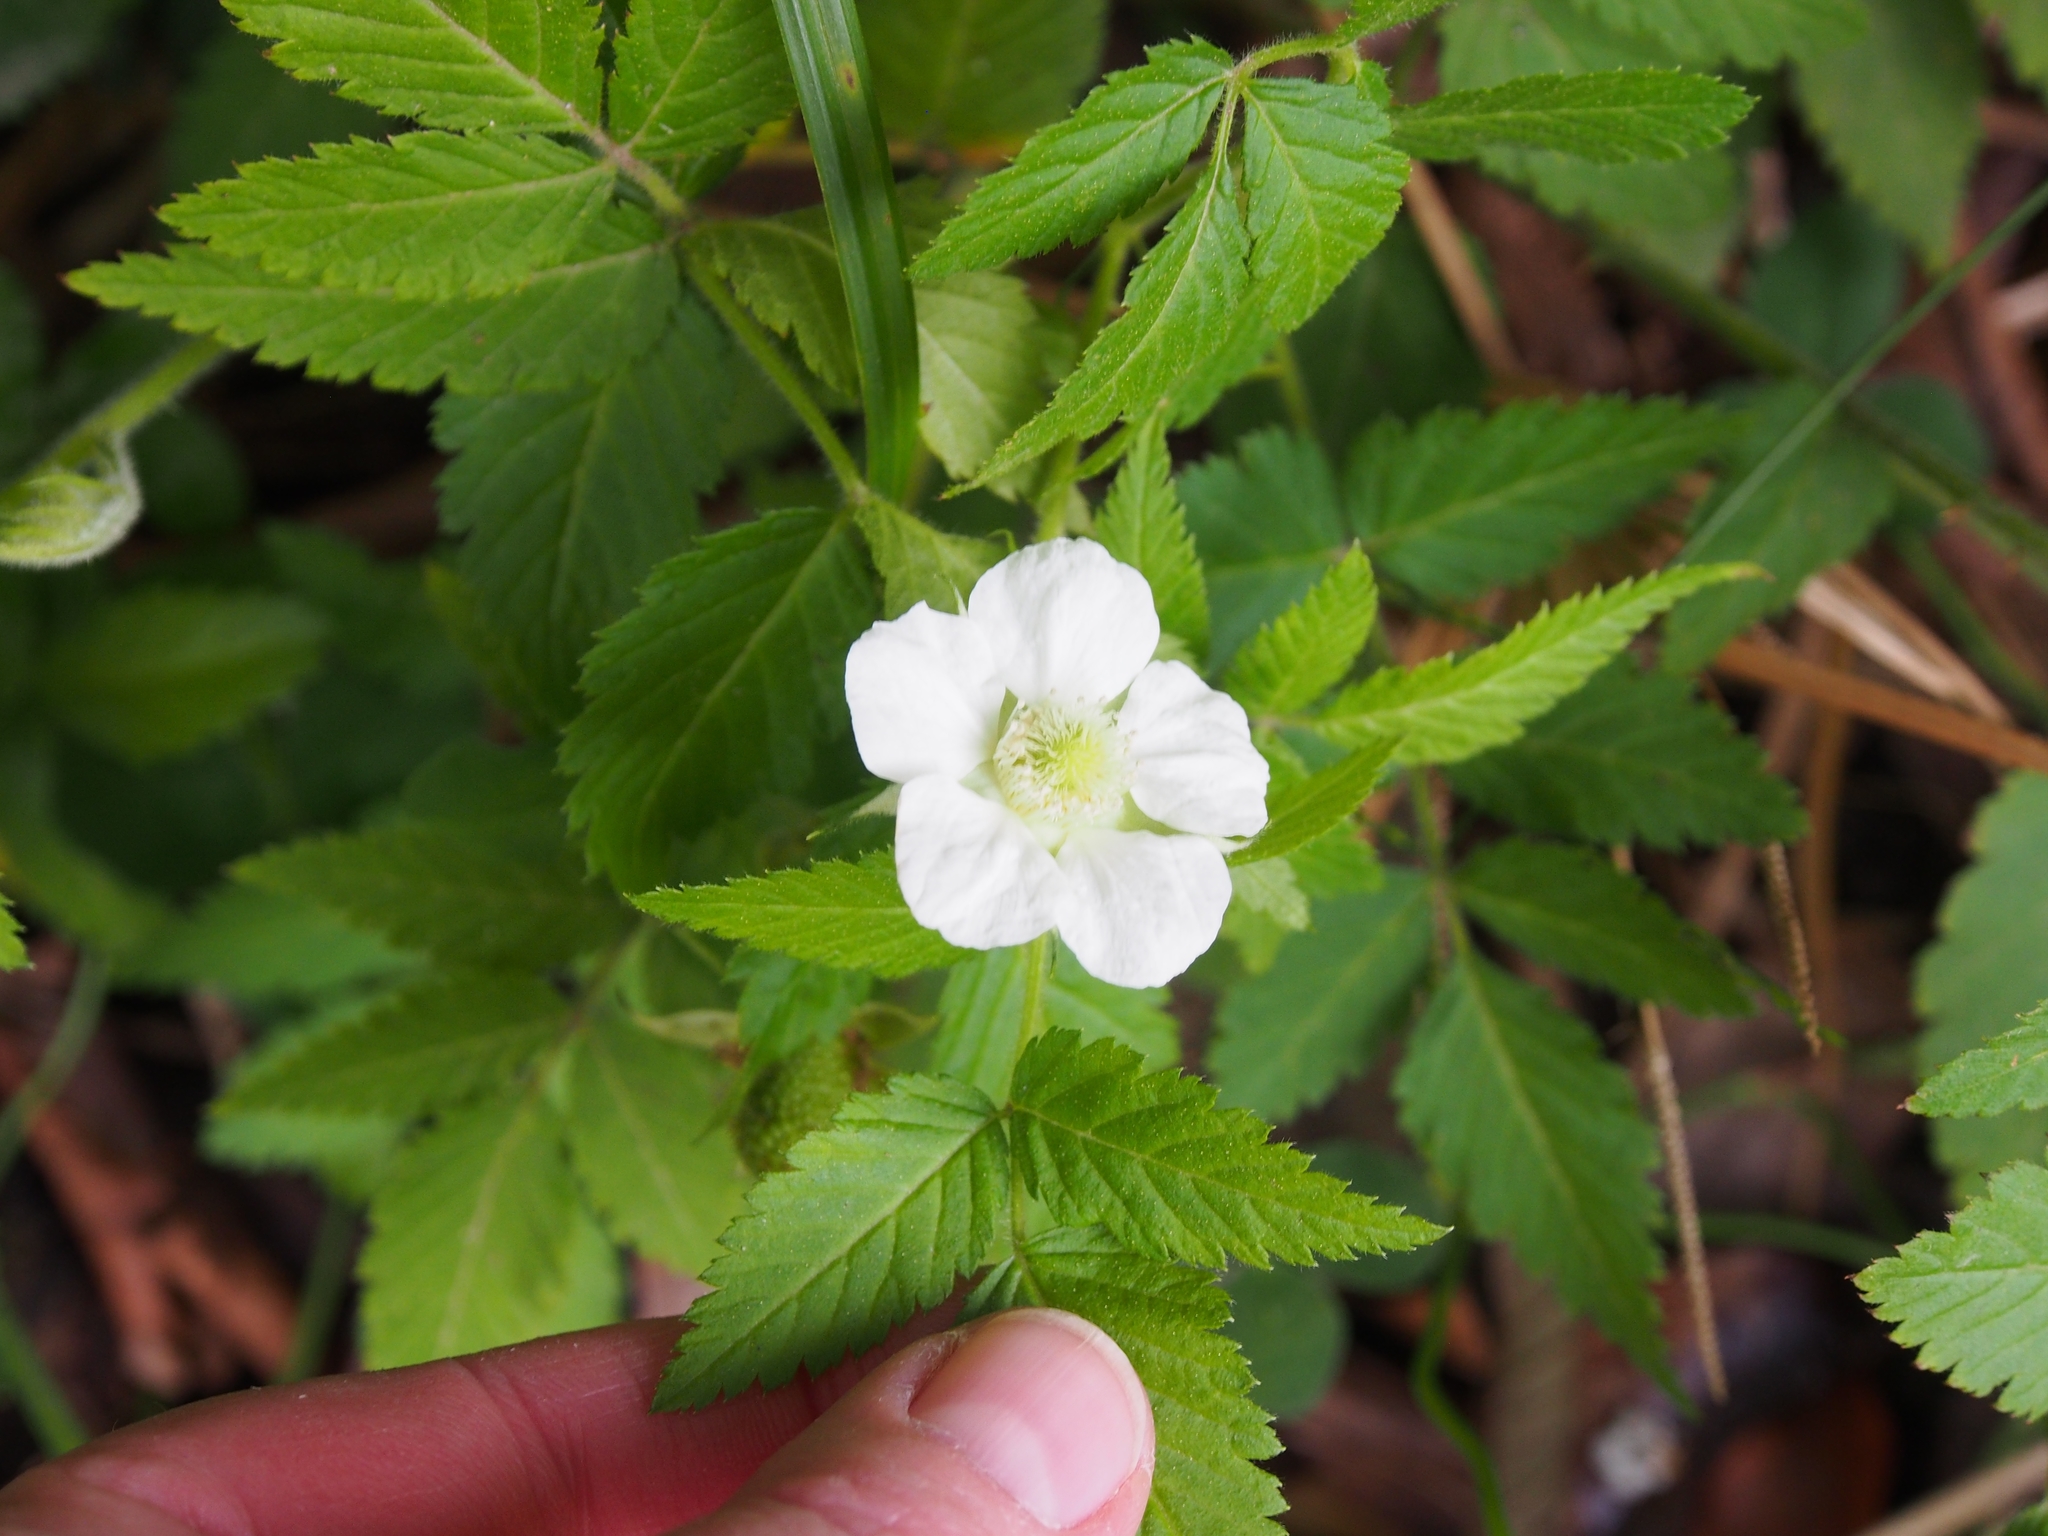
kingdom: Plantae
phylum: Tracheophyta
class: Magnoliopsida
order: Rosales
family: Rosaceae
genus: Rubus
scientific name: Rubus rosifolius
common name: Roseleaf raspberry
